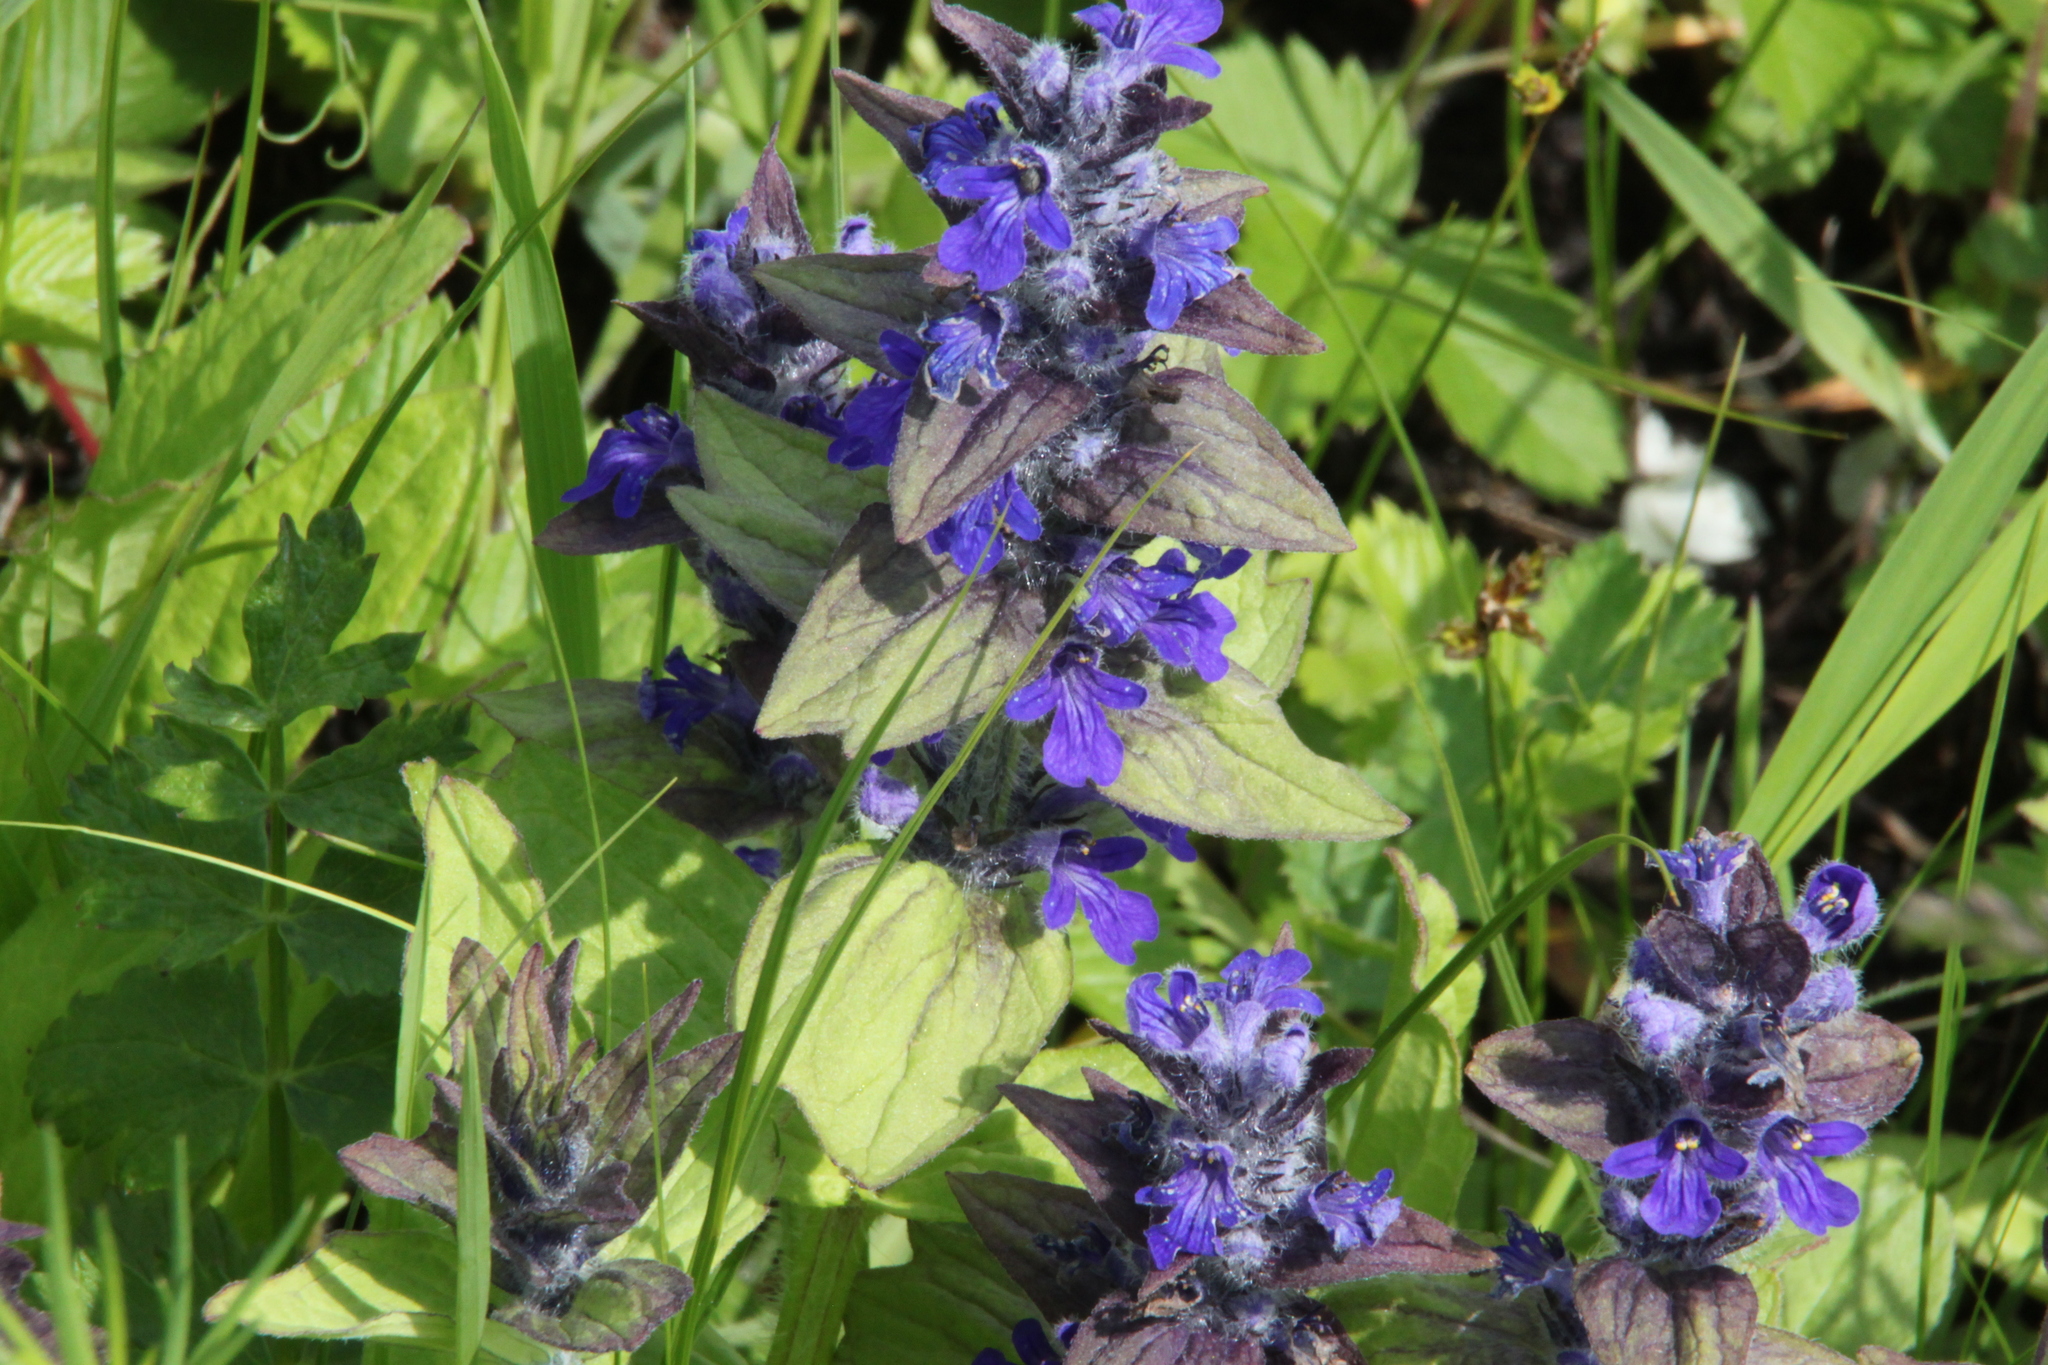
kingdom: Plantae
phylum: Tracheophyta
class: Magnoliopsida
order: Lamiales
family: Lamiaceae
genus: Ajuga
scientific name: Ajuga genevensis
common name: Blue bugle
